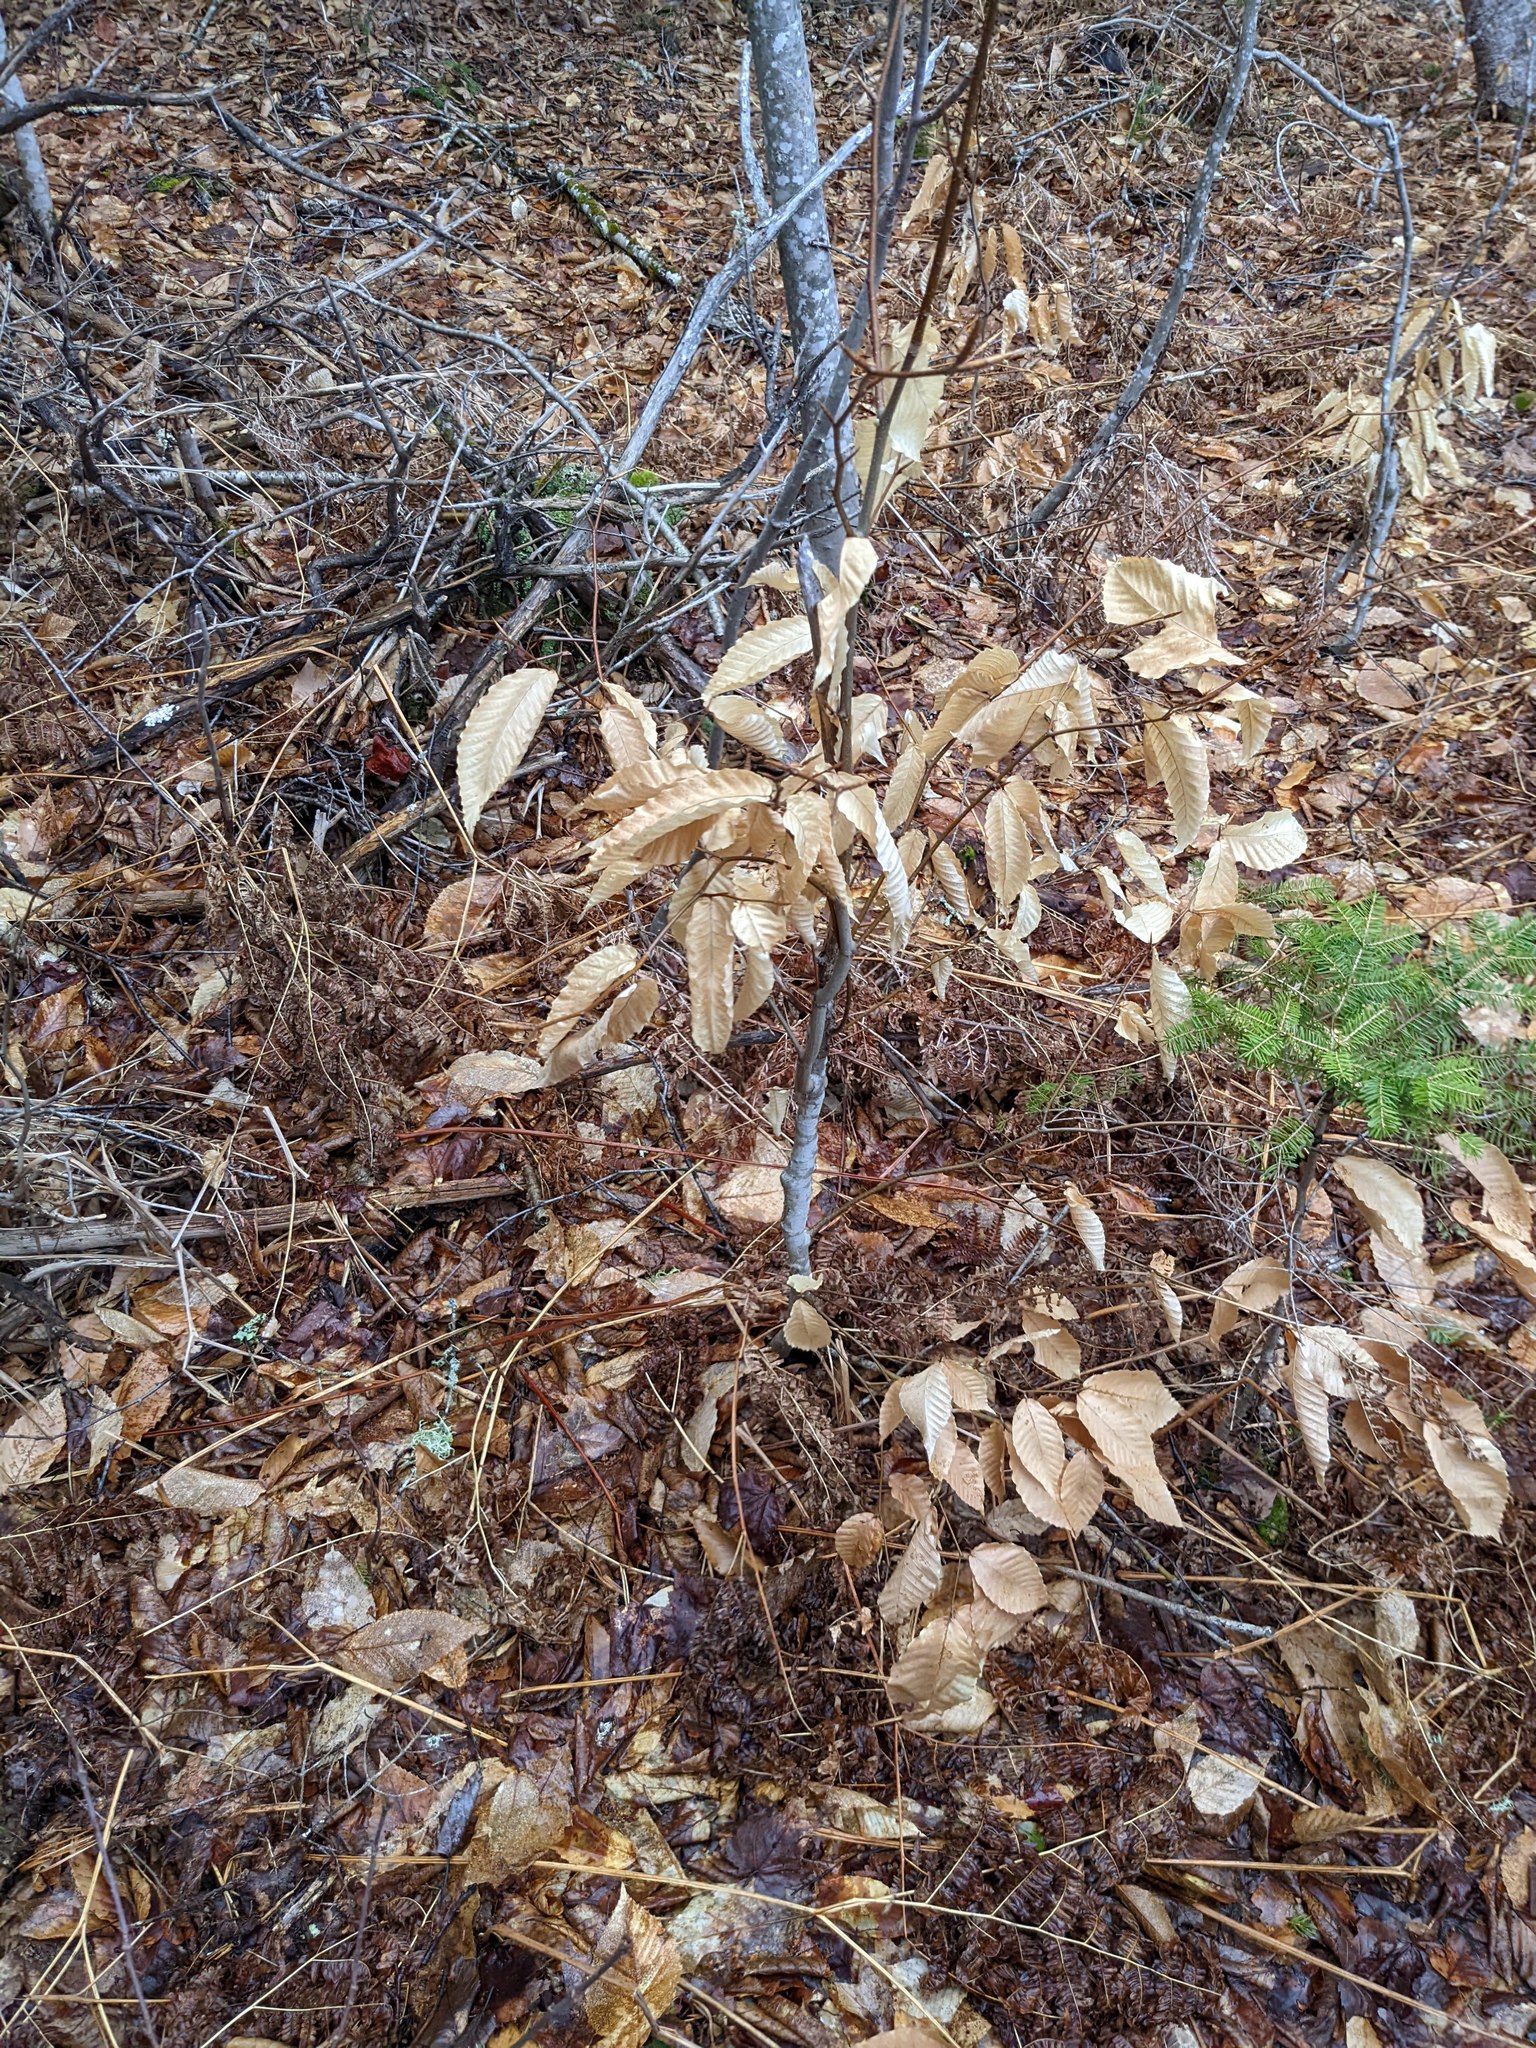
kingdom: Plantae
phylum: Tracheophyta
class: Magnoliopsida
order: Fagales
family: Fagaceae
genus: Fagus
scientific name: Fagus grandifolia
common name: American beech
